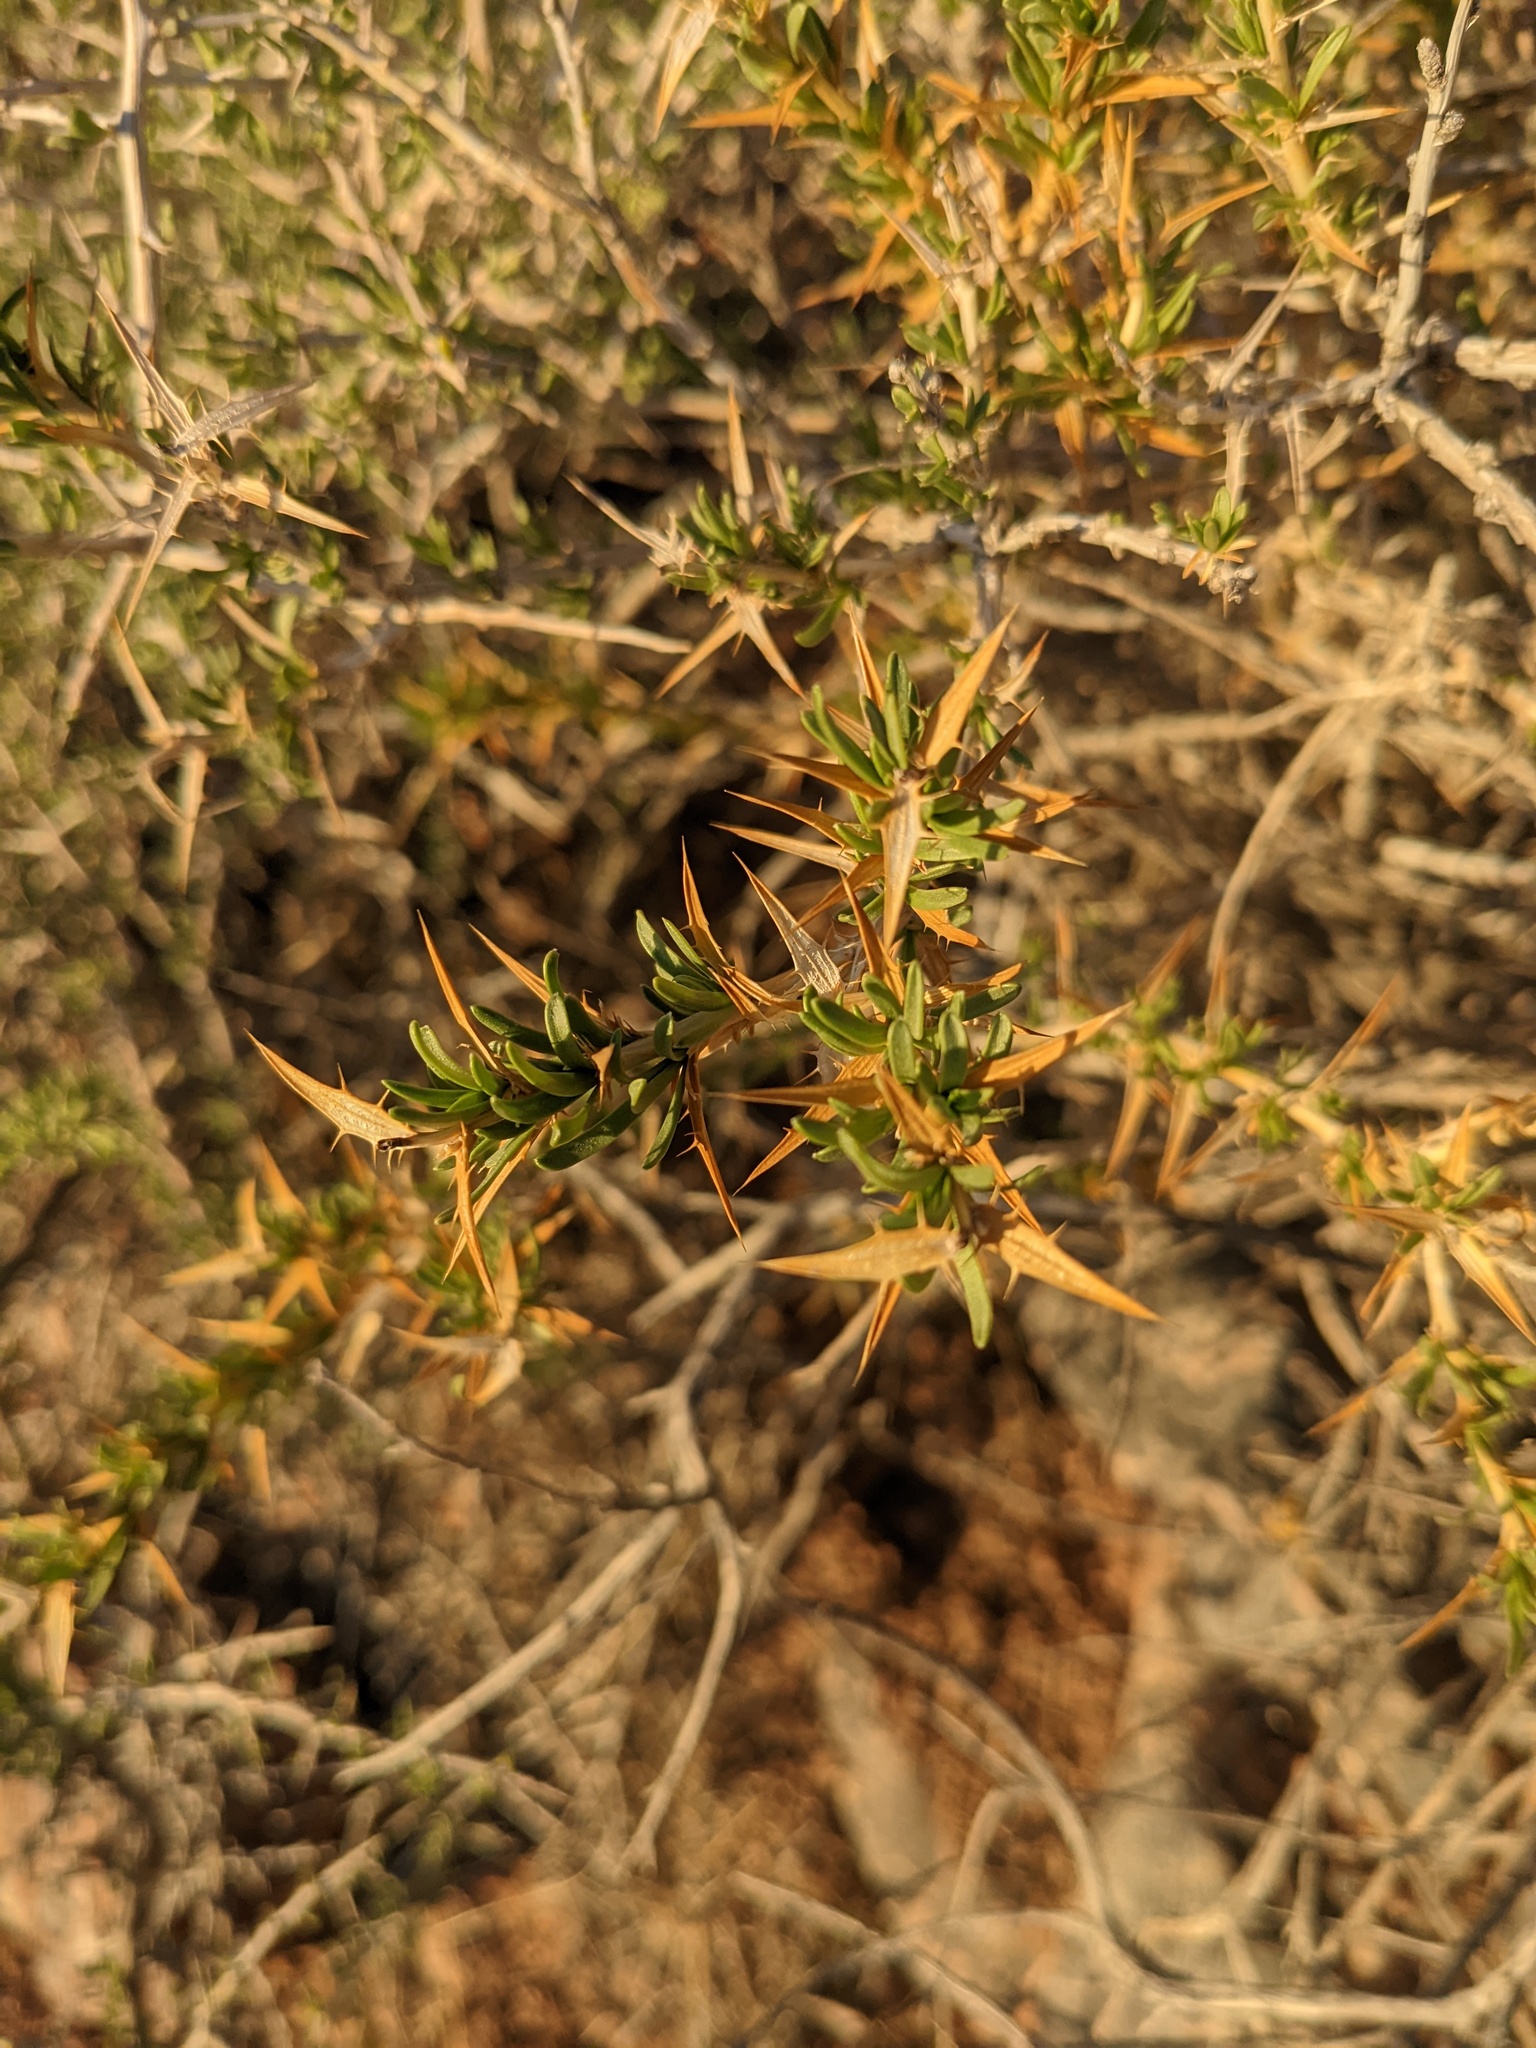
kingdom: Plantae
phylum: Tracheophyta
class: Magnoliopsida
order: Asterales
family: Asteraceae
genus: Hecastocleis
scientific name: Hecastocleis shockleyi
